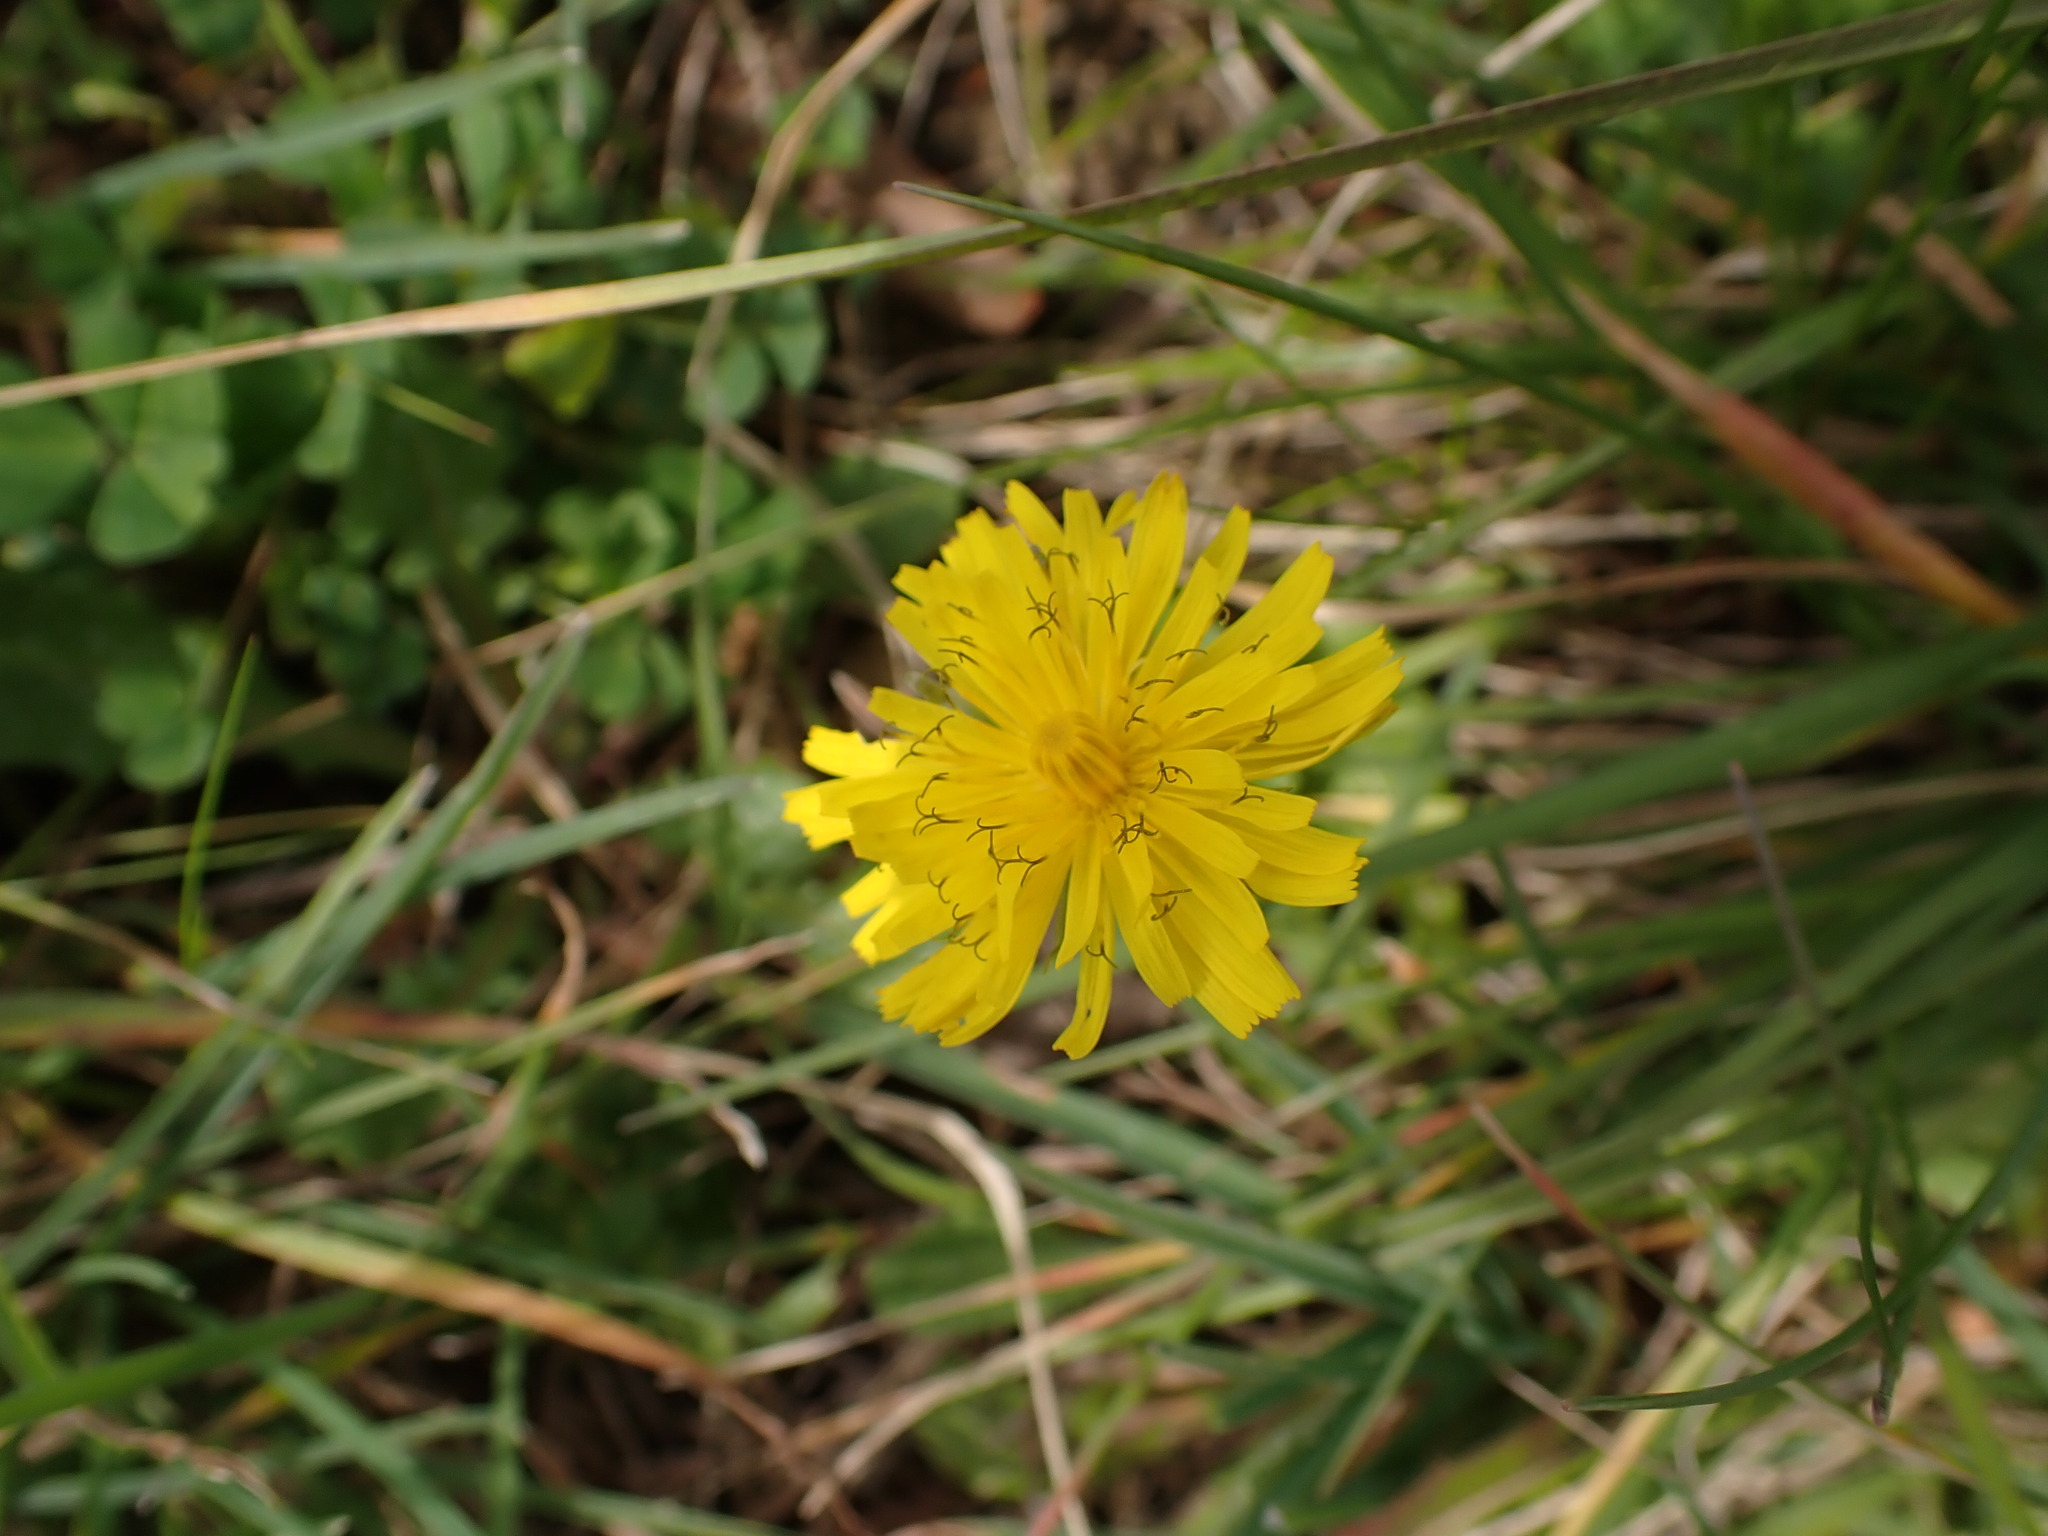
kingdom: Plantae
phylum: Tracheophyta
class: Magnoliopsida
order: Asterales
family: Asteraceae
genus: Crepis
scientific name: Crepis sancta
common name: Hawk's-beard
